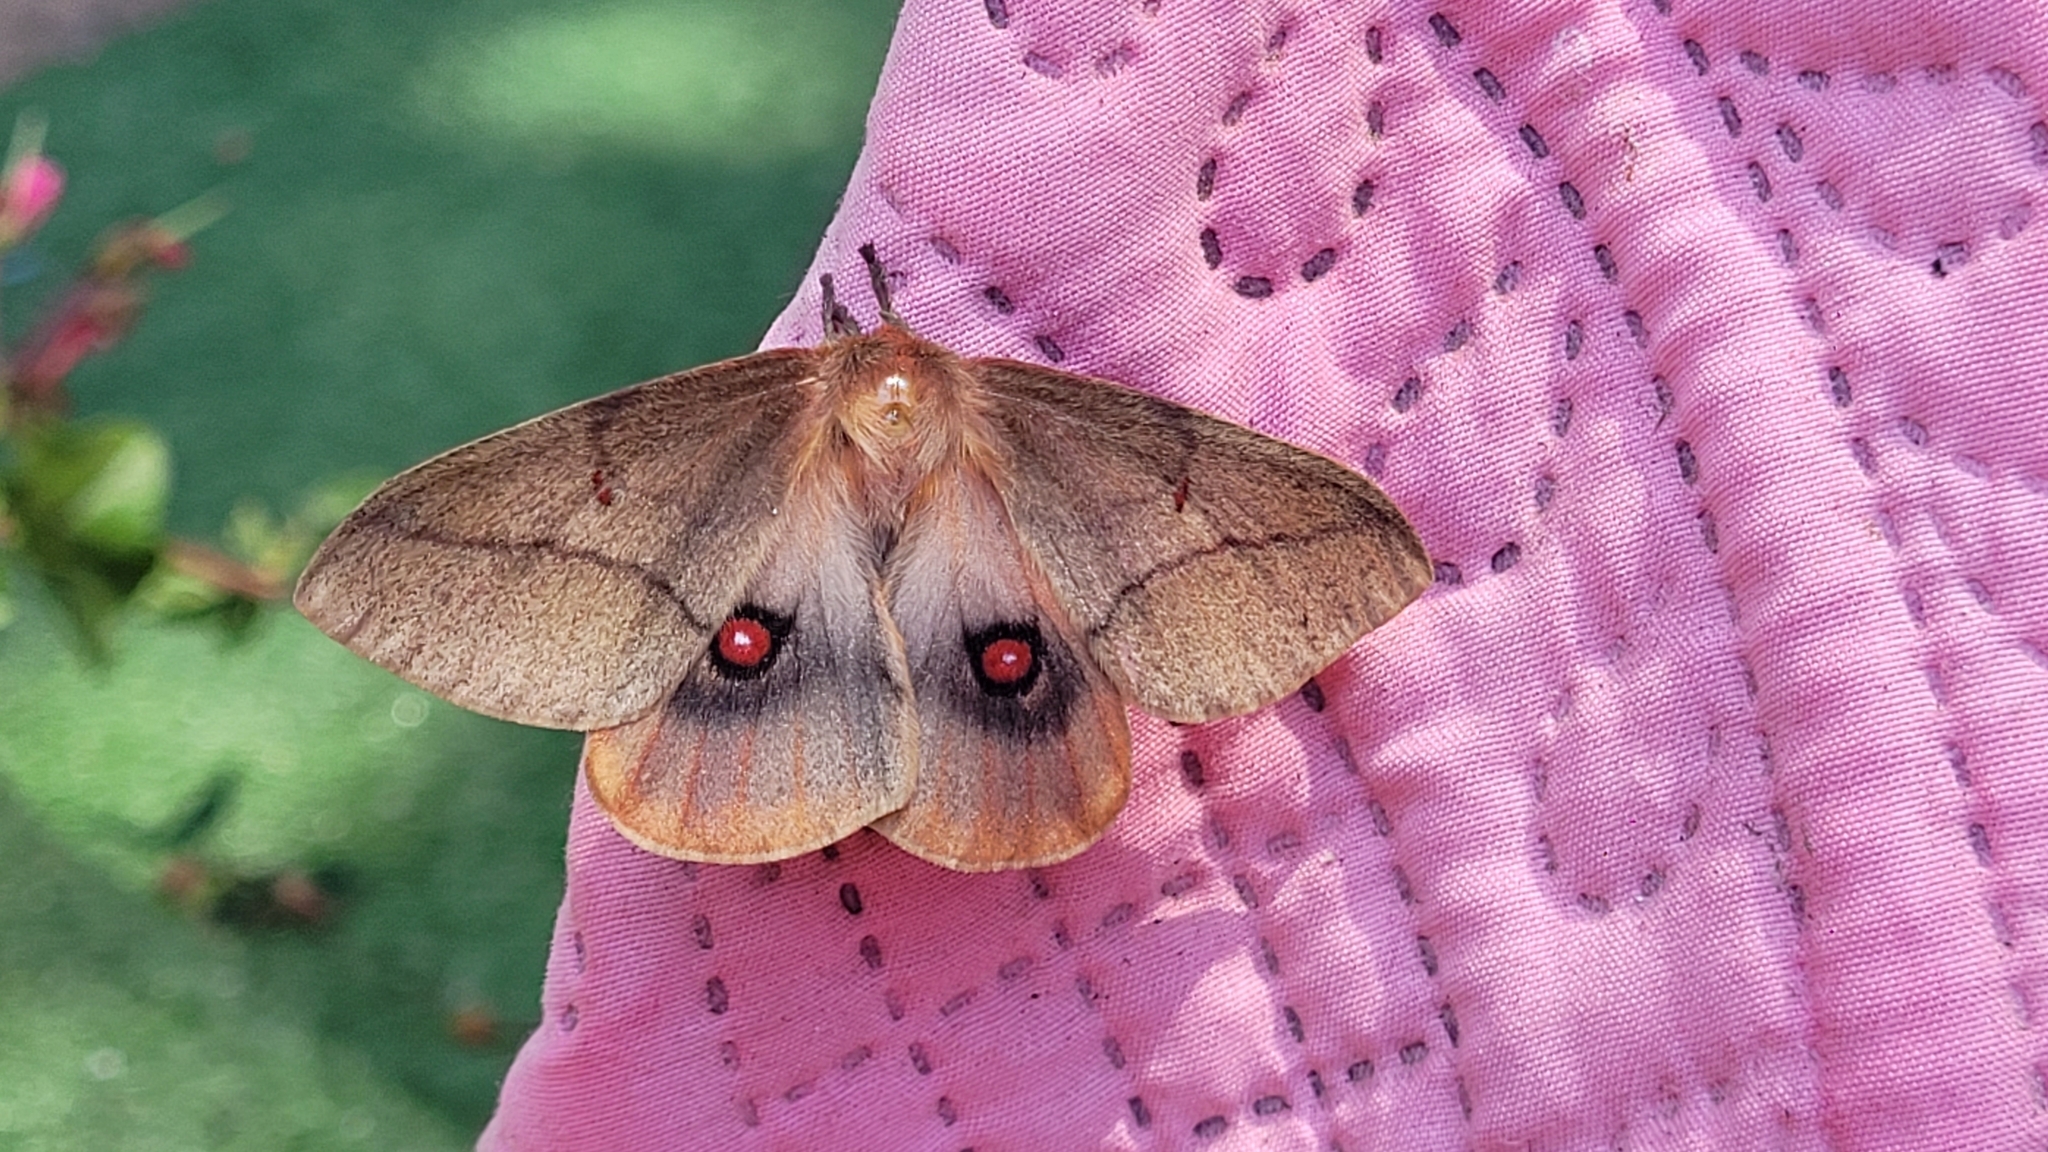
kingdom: Animalia
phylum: Arthropoda
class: Insecta
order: Lepidoptera
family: Saturniidae
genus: Adetomeris
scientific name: Adetomeris erythrops
